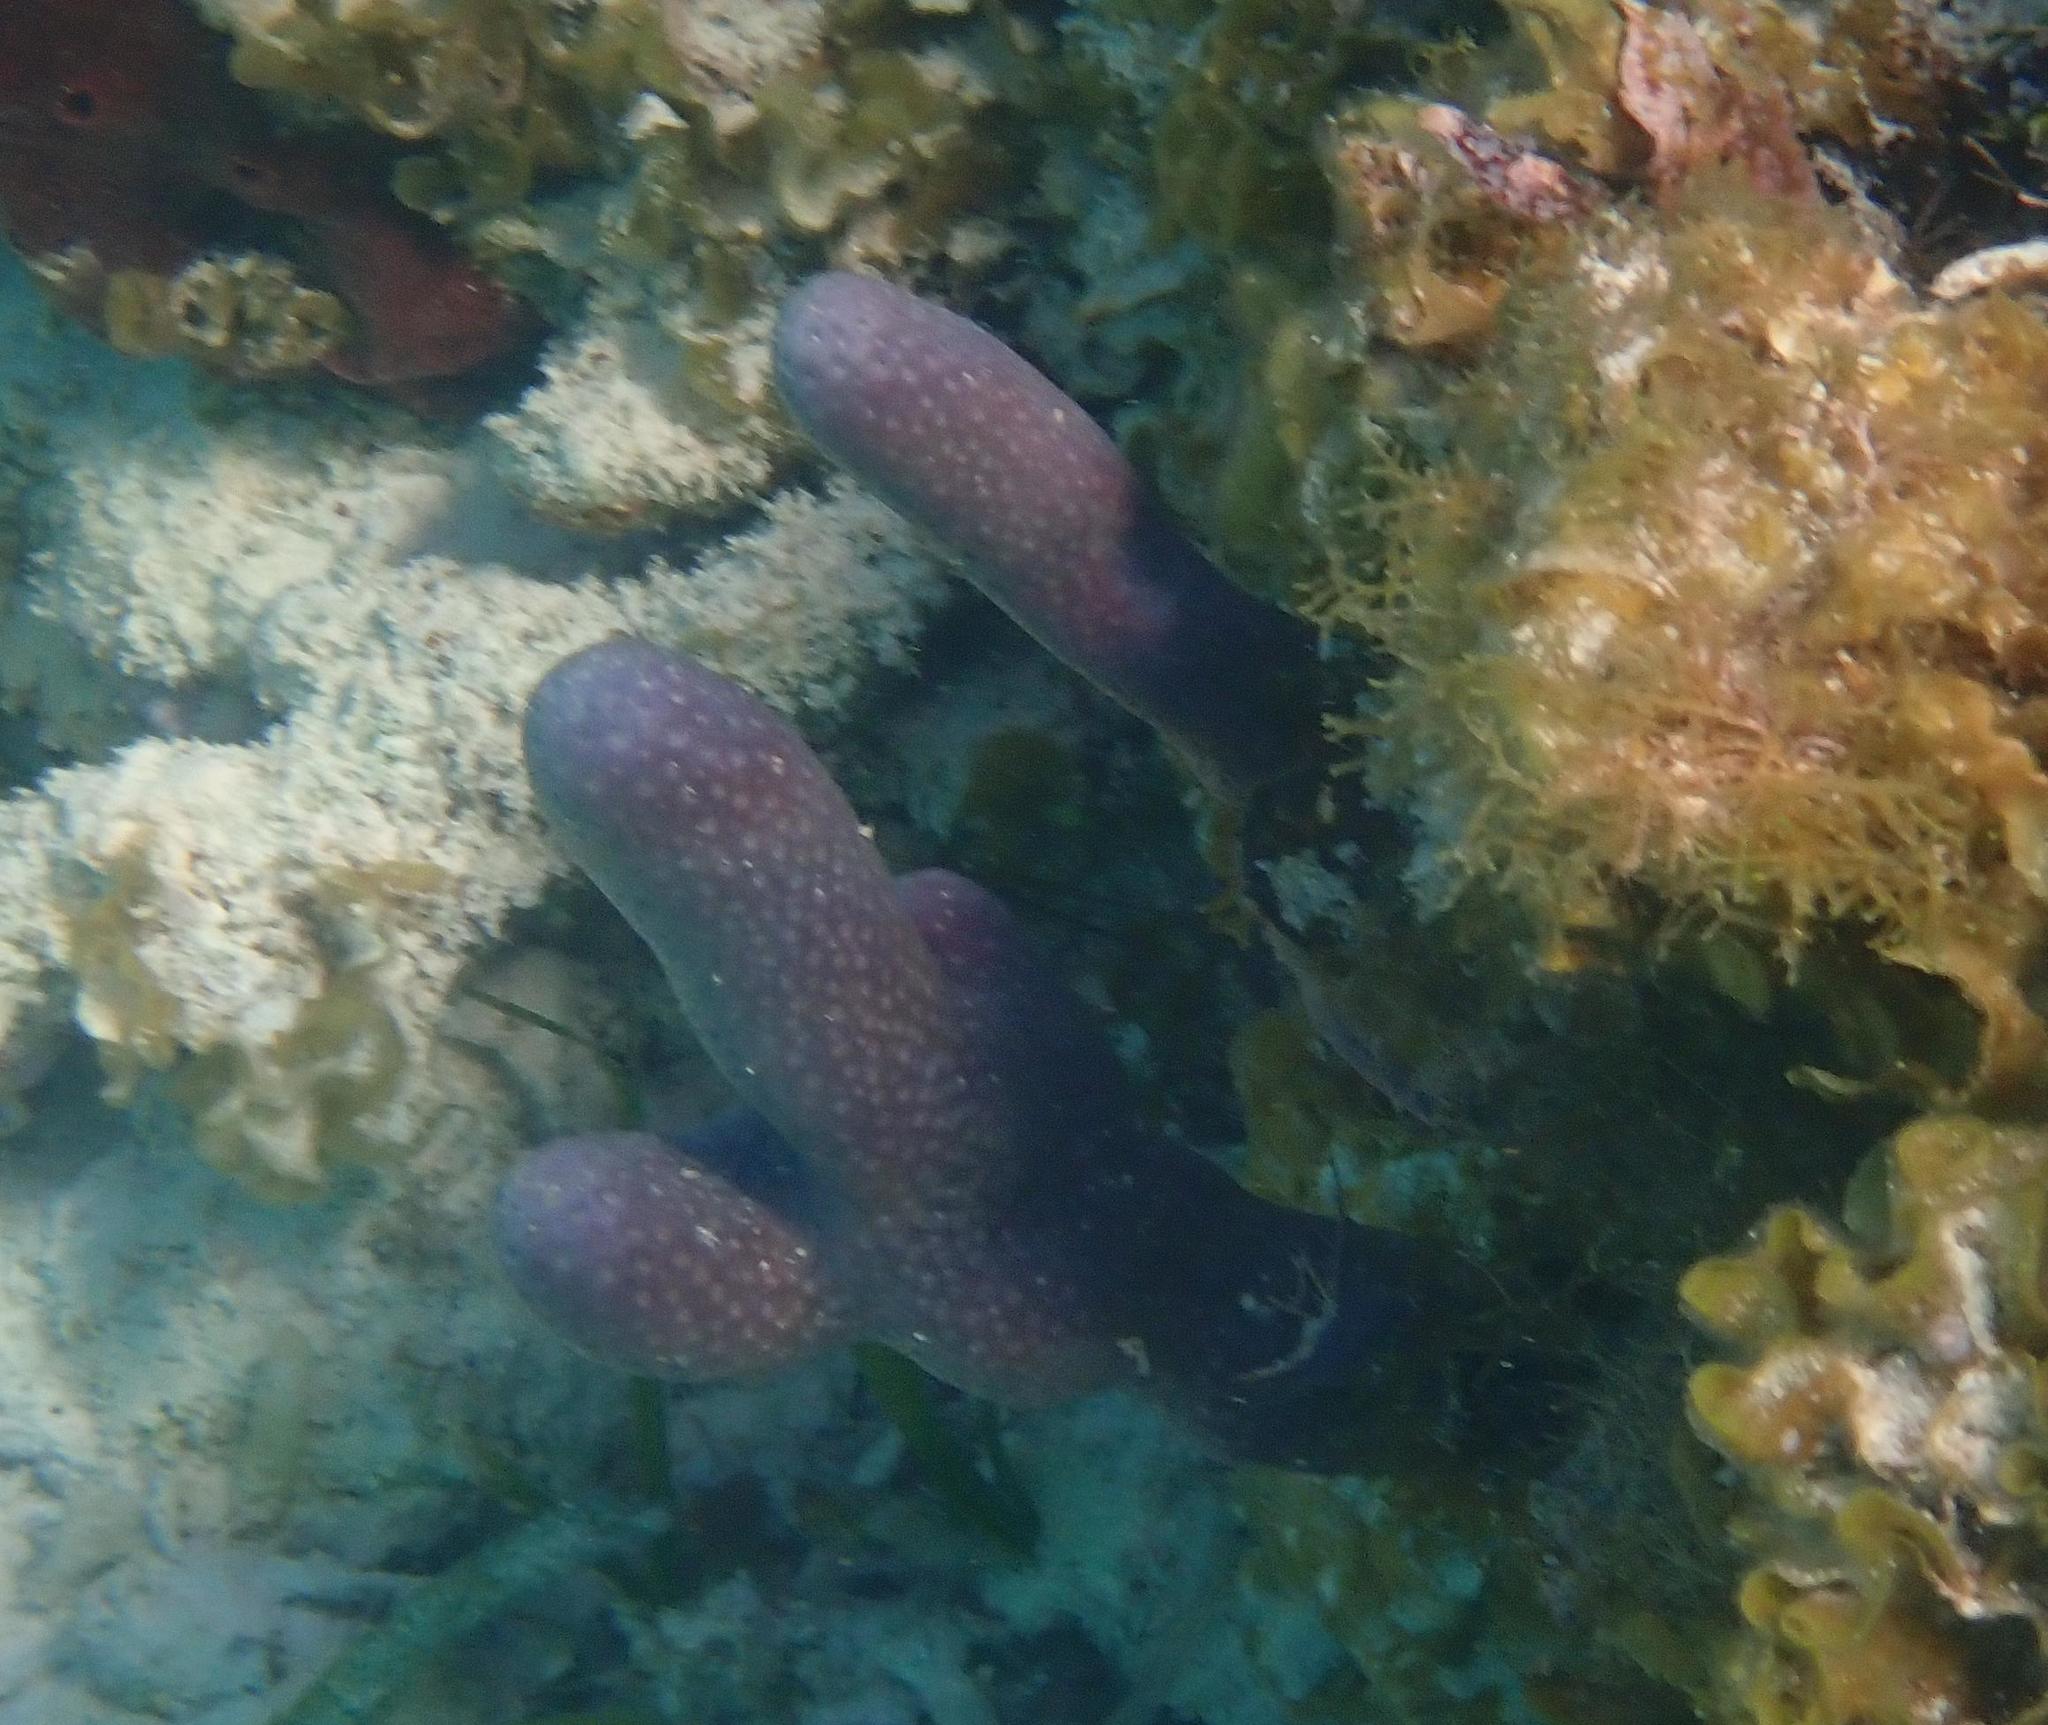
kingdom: Animalia
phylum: Cnidaria
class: Anthozoa
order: Scleralcyonacea
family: Briareidae
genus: Briareum
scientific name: Briareum asbestinum
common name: Corky sea finger
